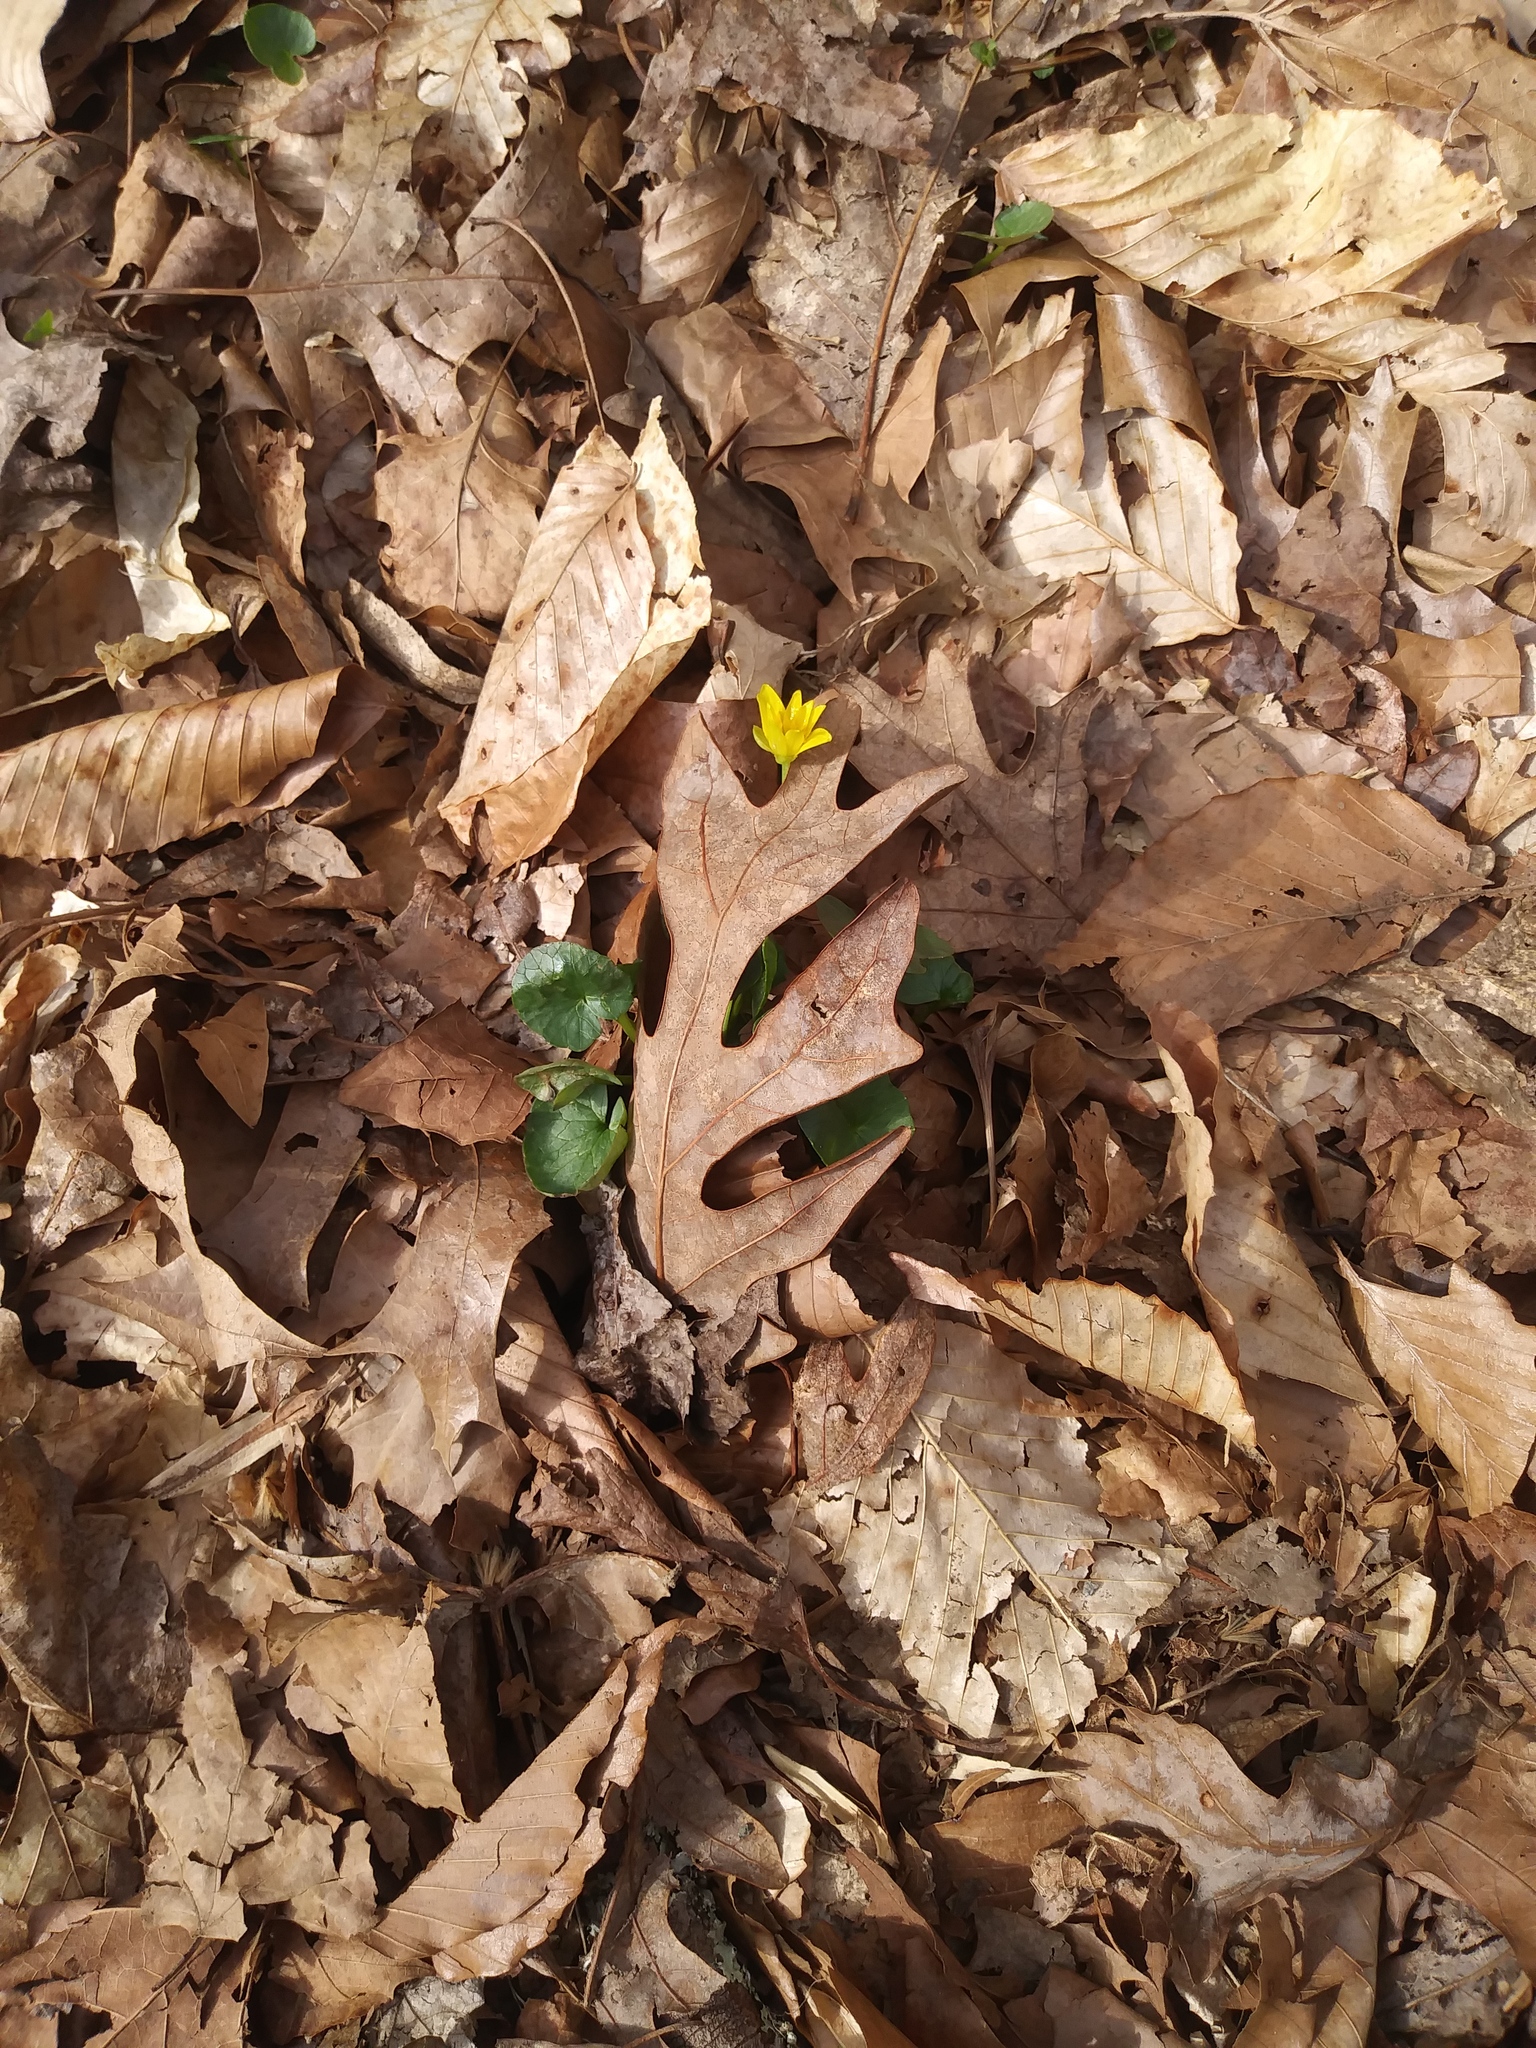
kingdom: Plantae
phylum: Tracheophyta
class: Magnoliopsida
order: Ranunculales
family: Ranunculaceae
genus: Ficaria
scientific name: Ficaria verna
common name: Lesser celandine
